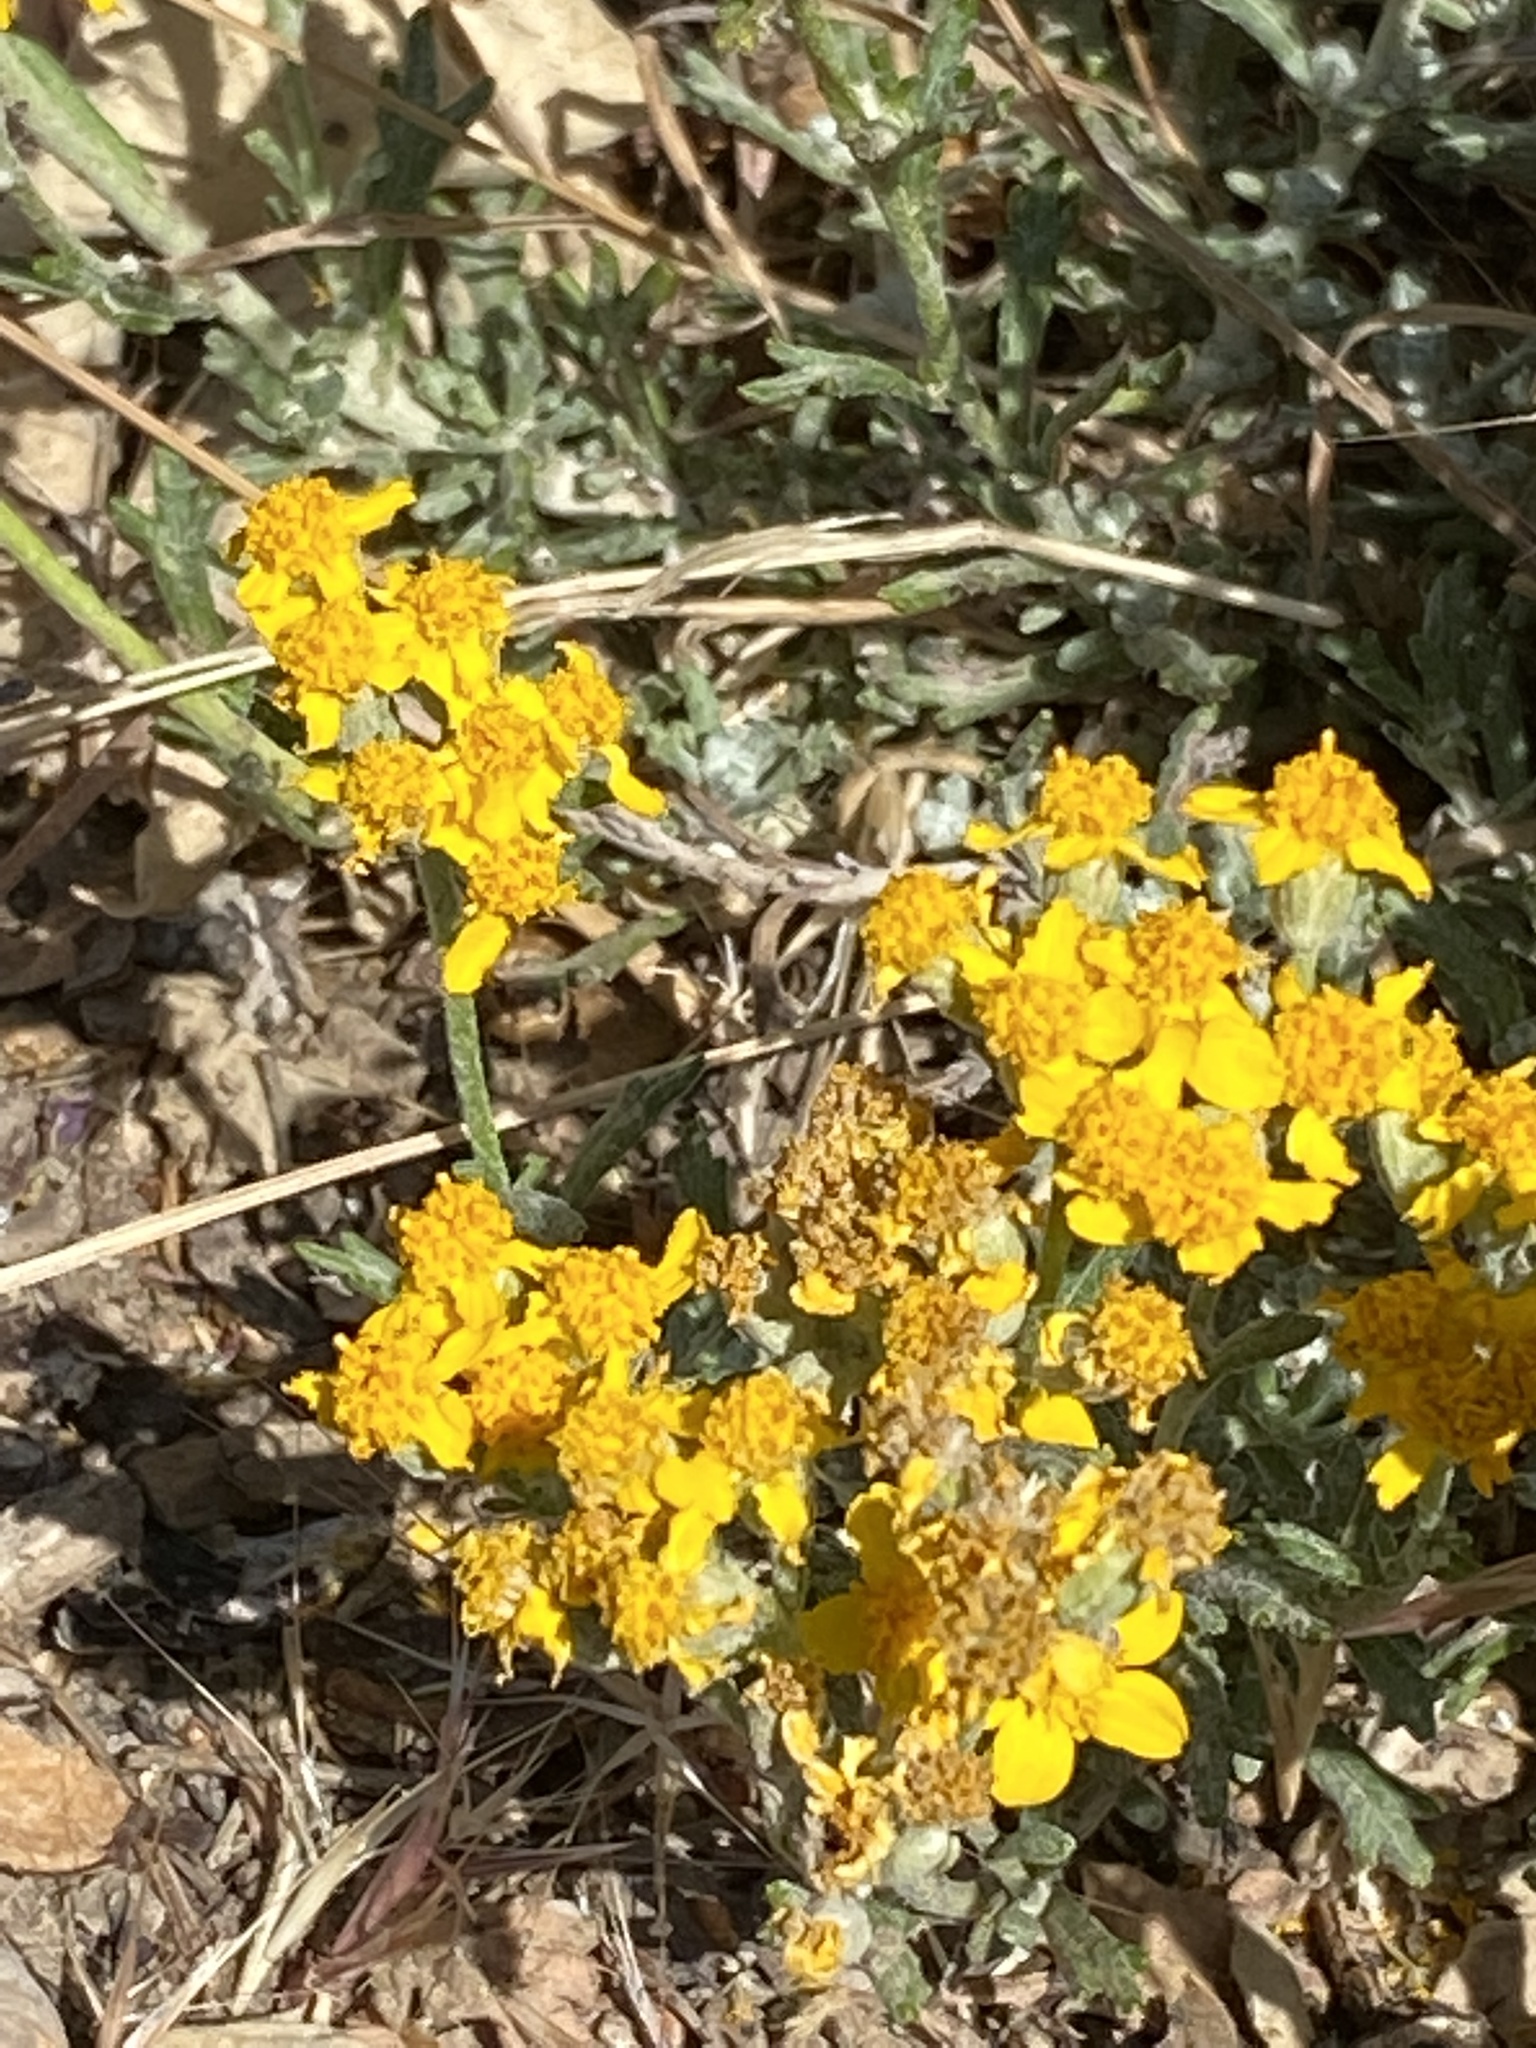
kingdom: Plantae
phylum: Tracheophyta
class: Magnoliopsida
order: Asterales
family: Asteraceae
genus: Eriophyllum
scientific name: Eriophyllum confertiflorum
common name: Golden-yarrow
